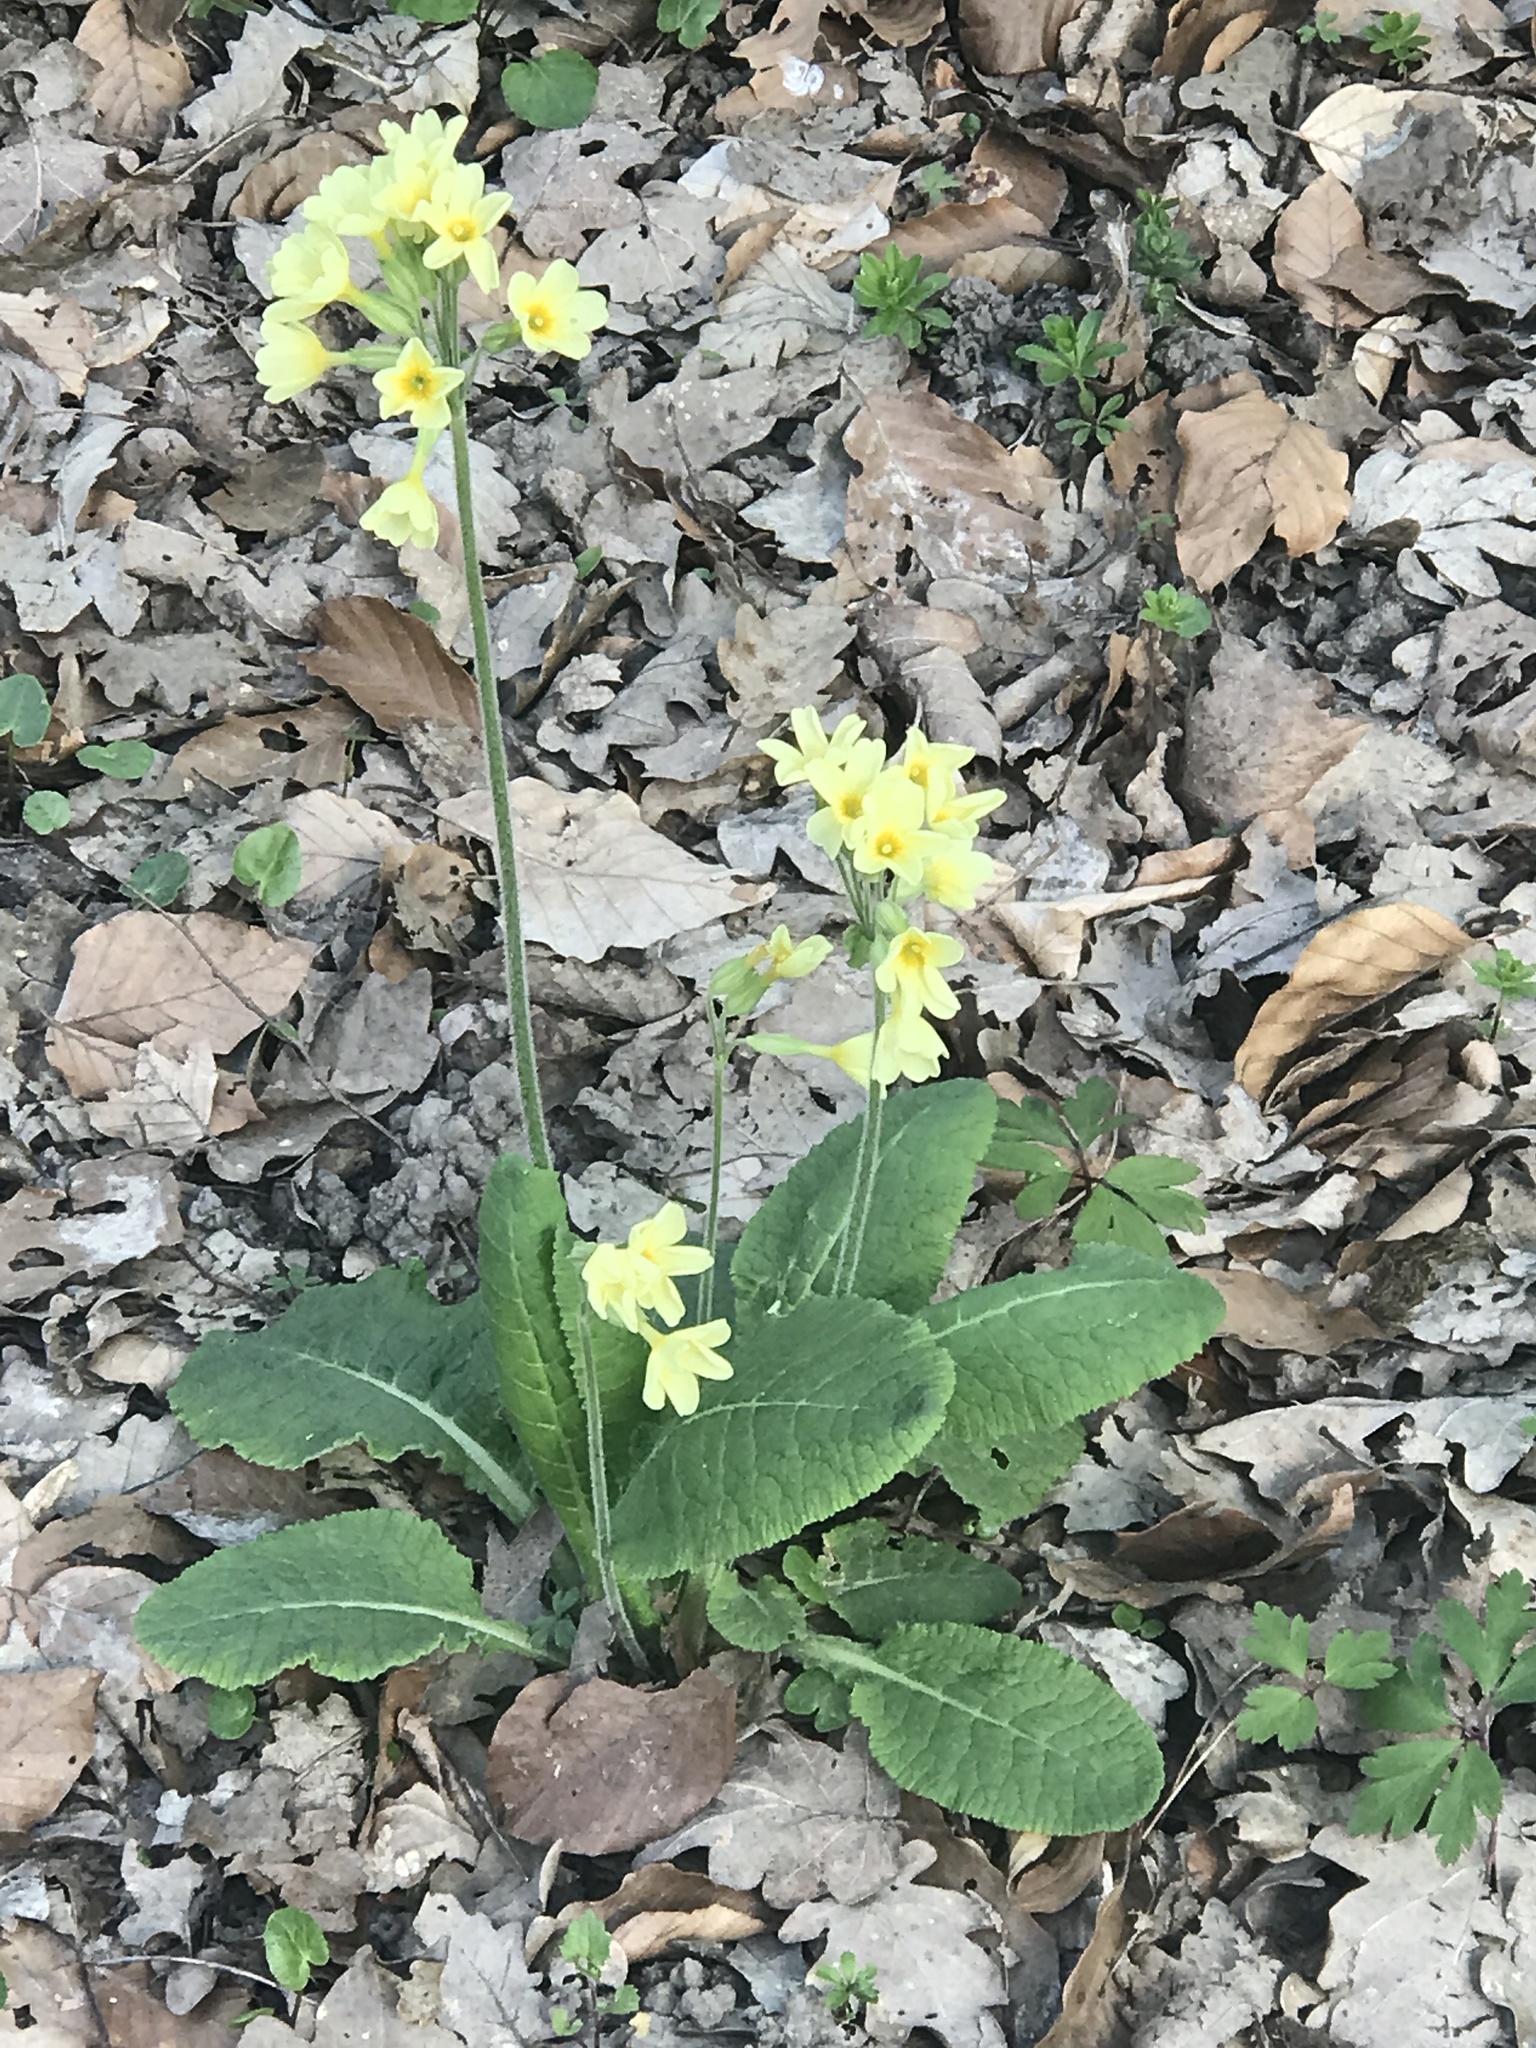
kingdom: Plantae
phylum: Tracheophyta
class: Magnoliopsida
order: Ericales
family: Primulaceae
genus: Primula
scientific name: Primula elatior
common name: Oxlip
